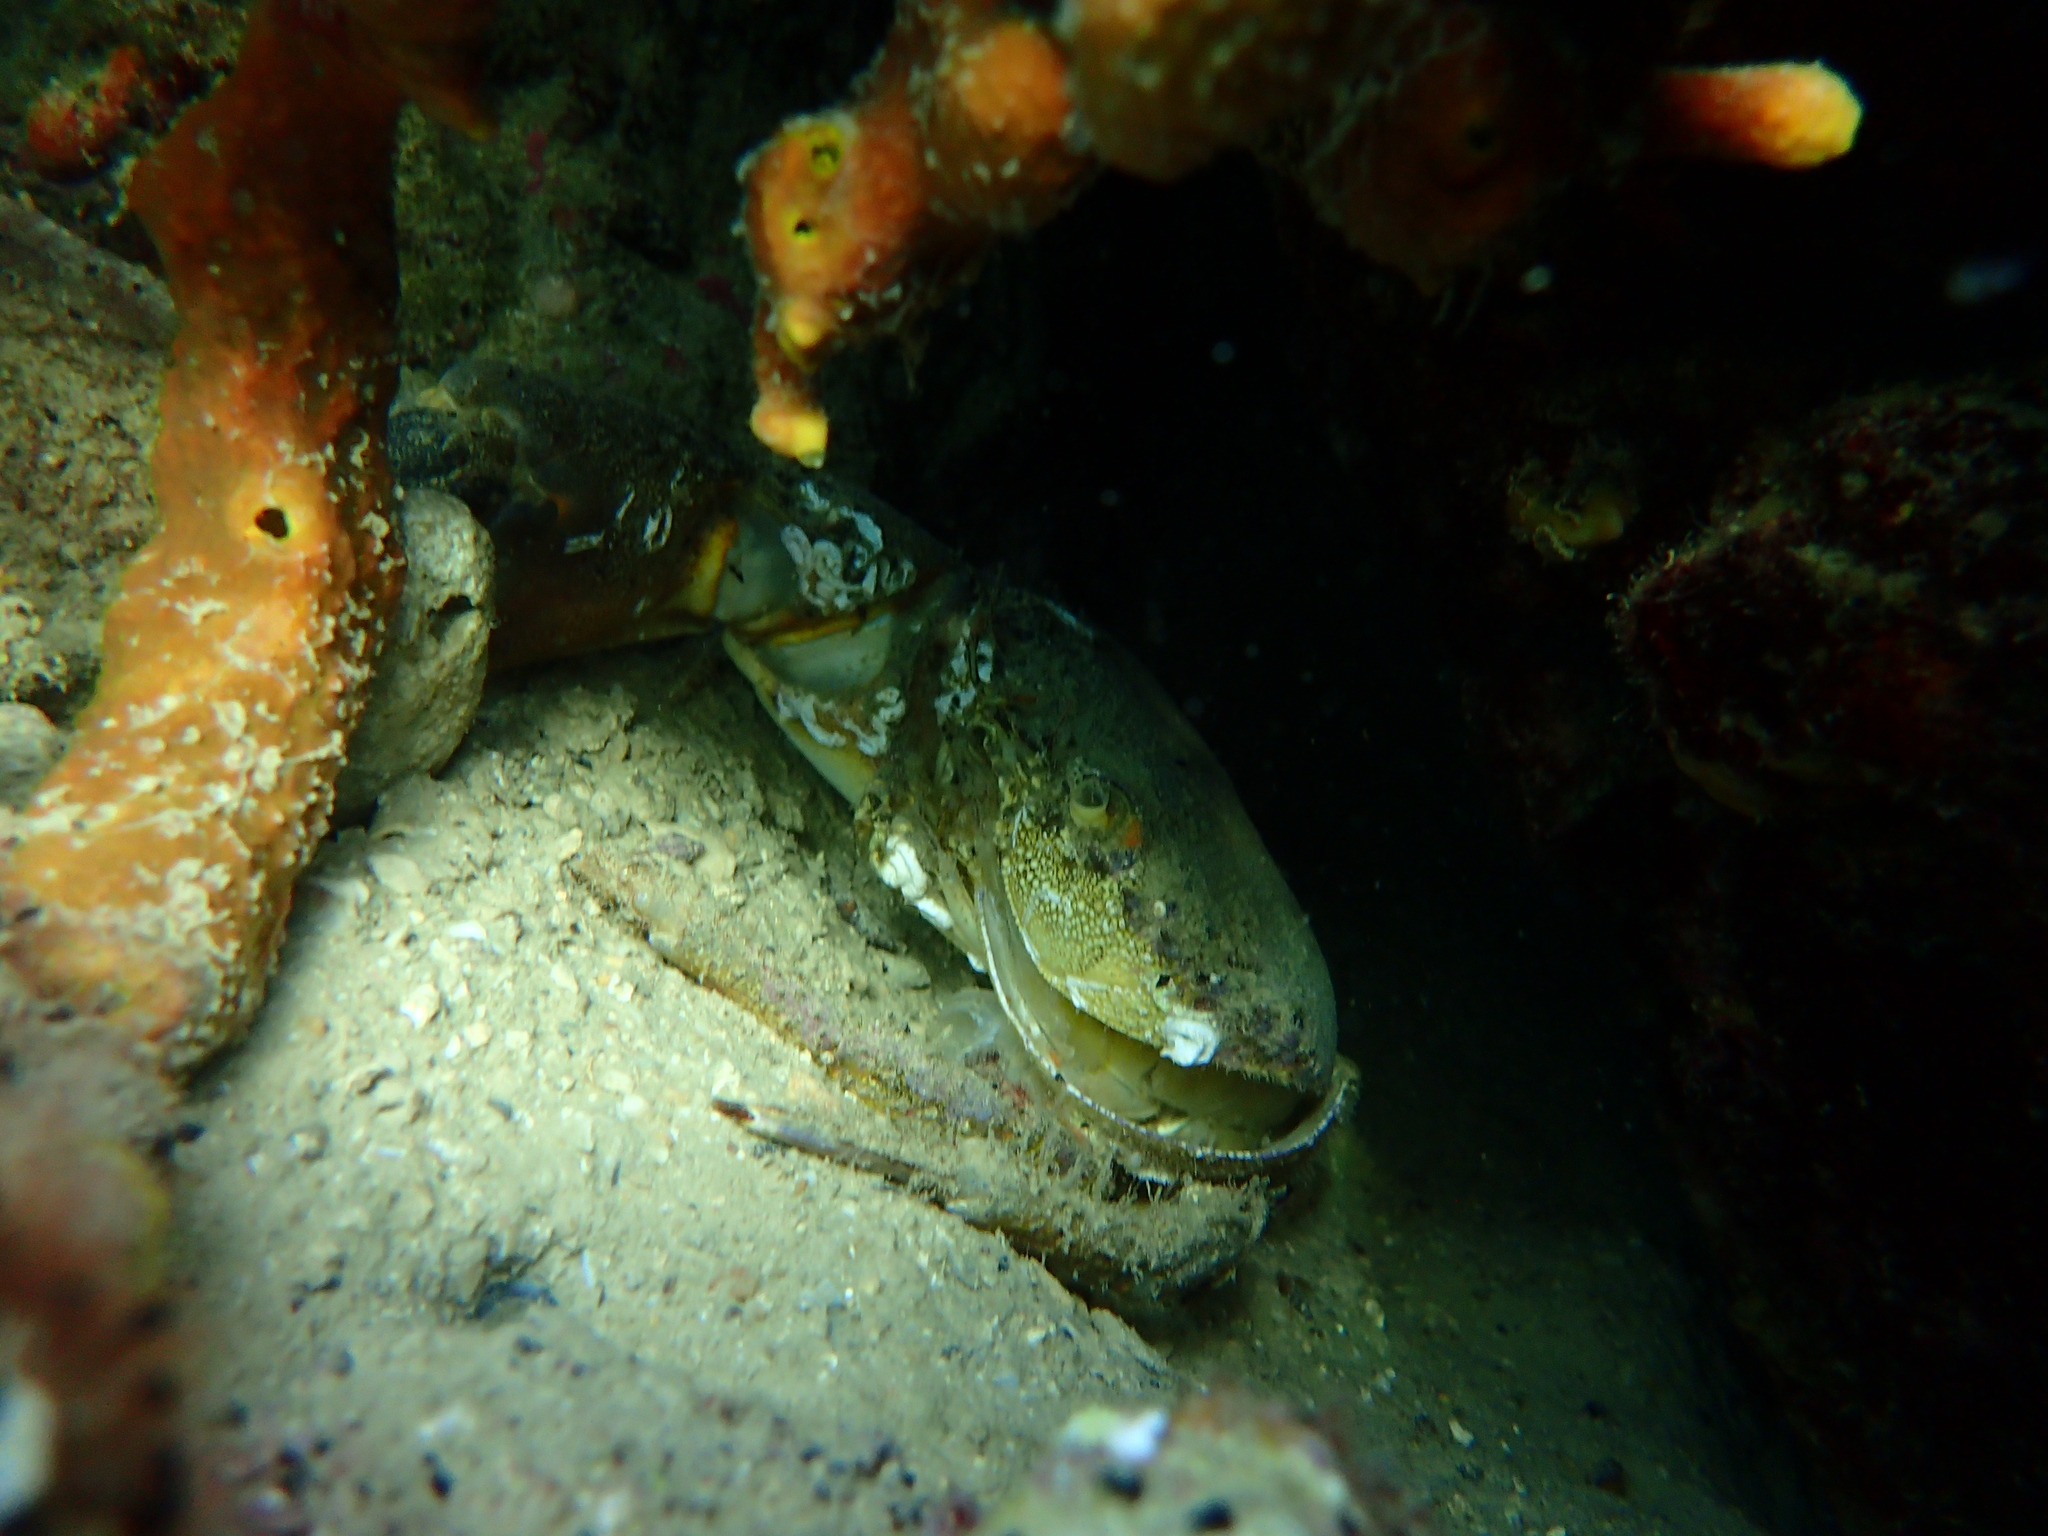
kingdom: Animalia
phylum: Arthropoda
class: Malacostraca
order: Decapoda
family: Eriphiidae
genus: Eriphia
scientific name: Eriphia verrucosa
